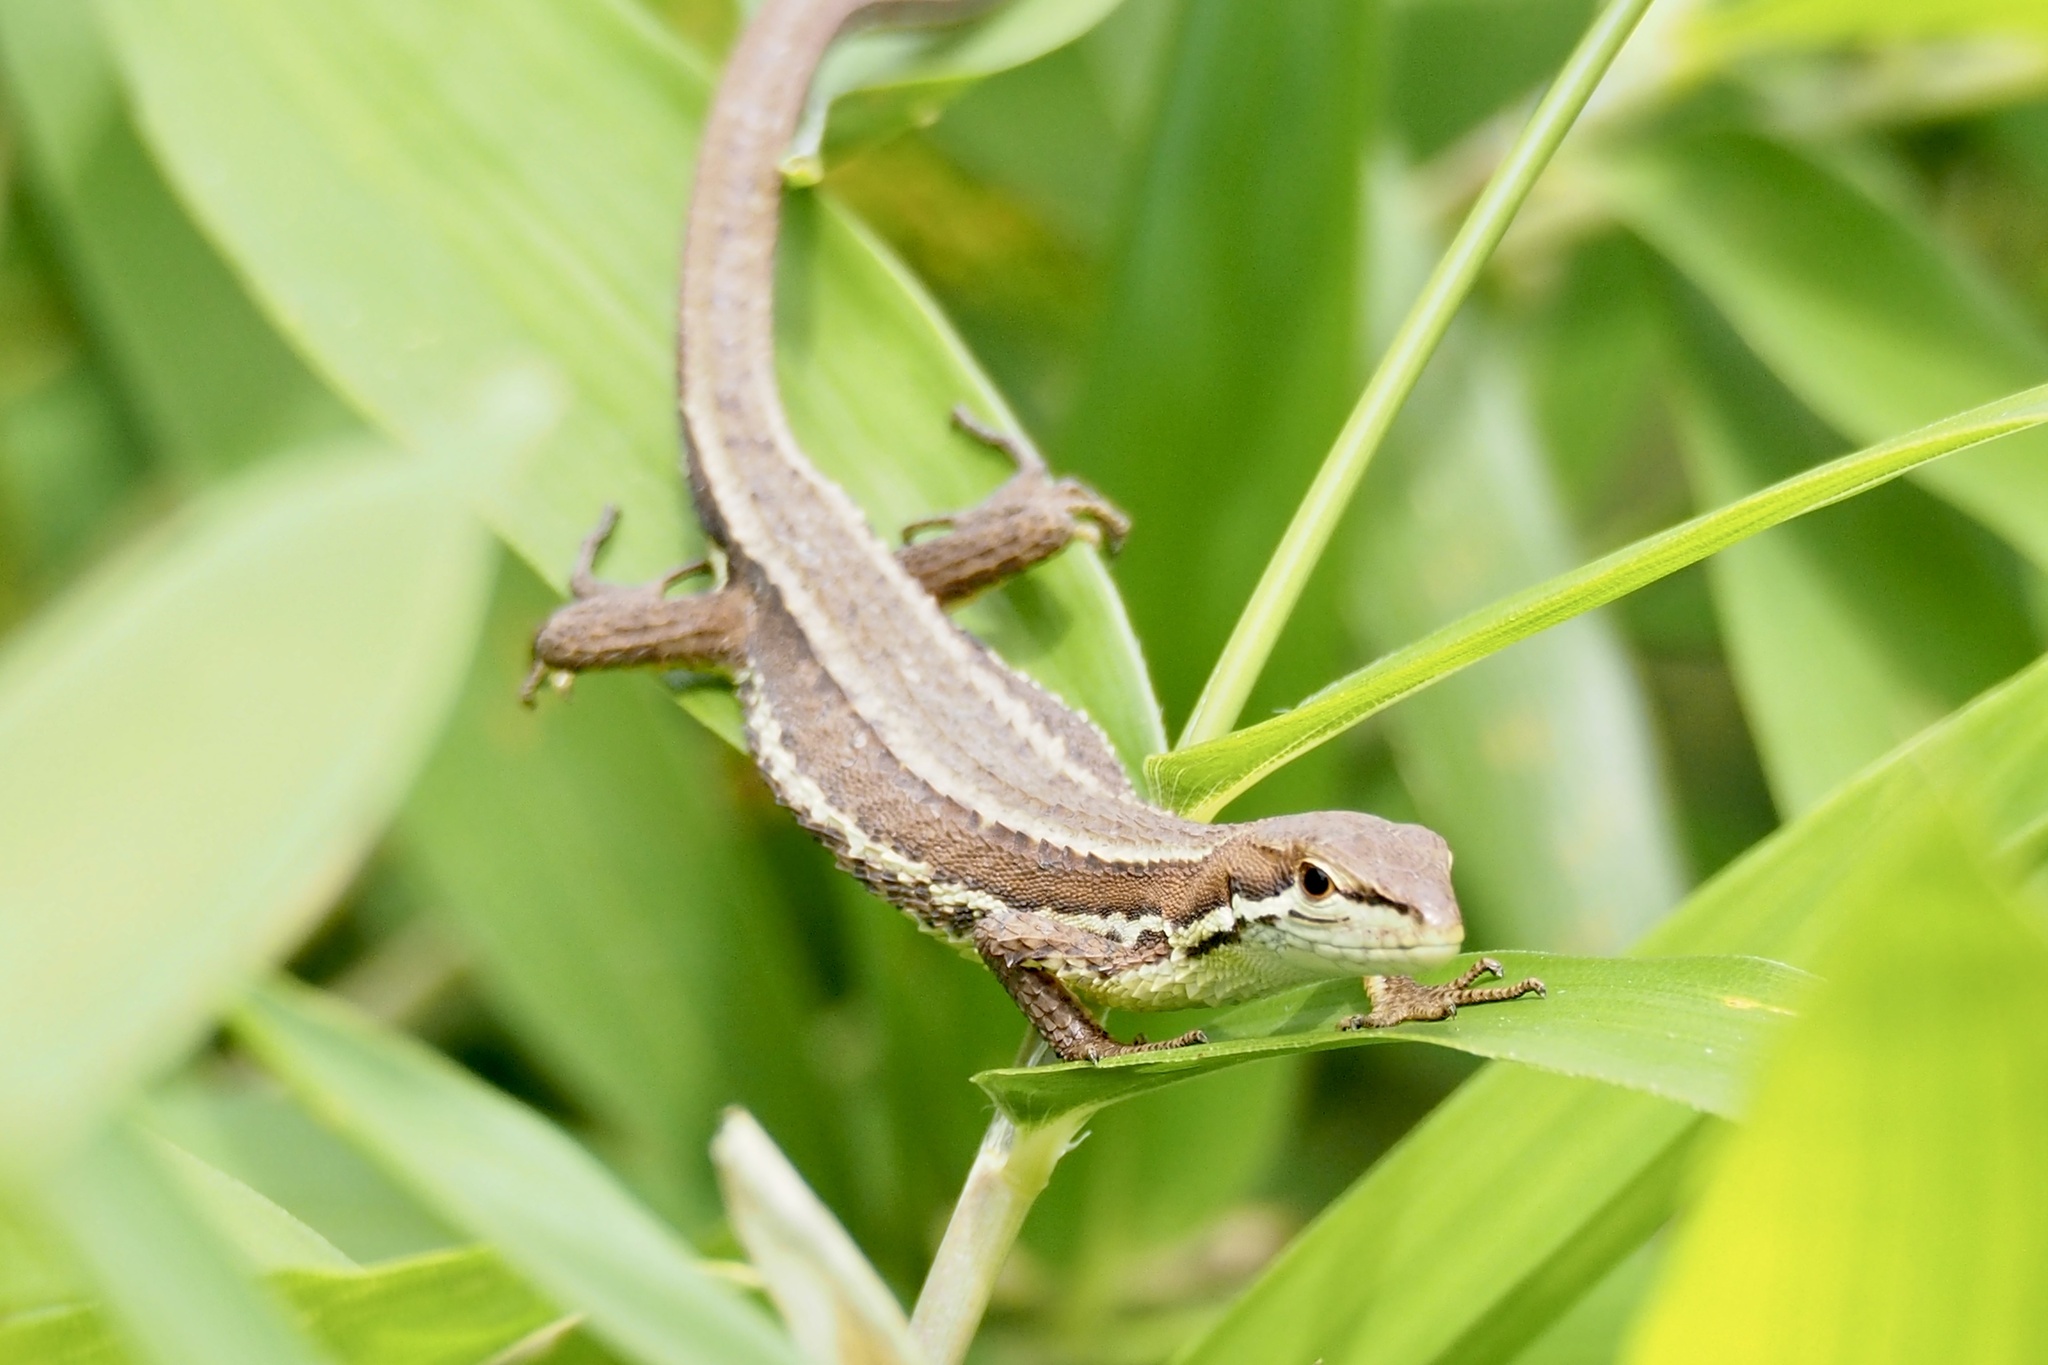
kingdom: Animalia
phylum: Chordata
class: Squamata
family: Lacertidae
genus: Takydromus
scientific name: Takydromus tachydromoides
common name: Japanese grass lizard
